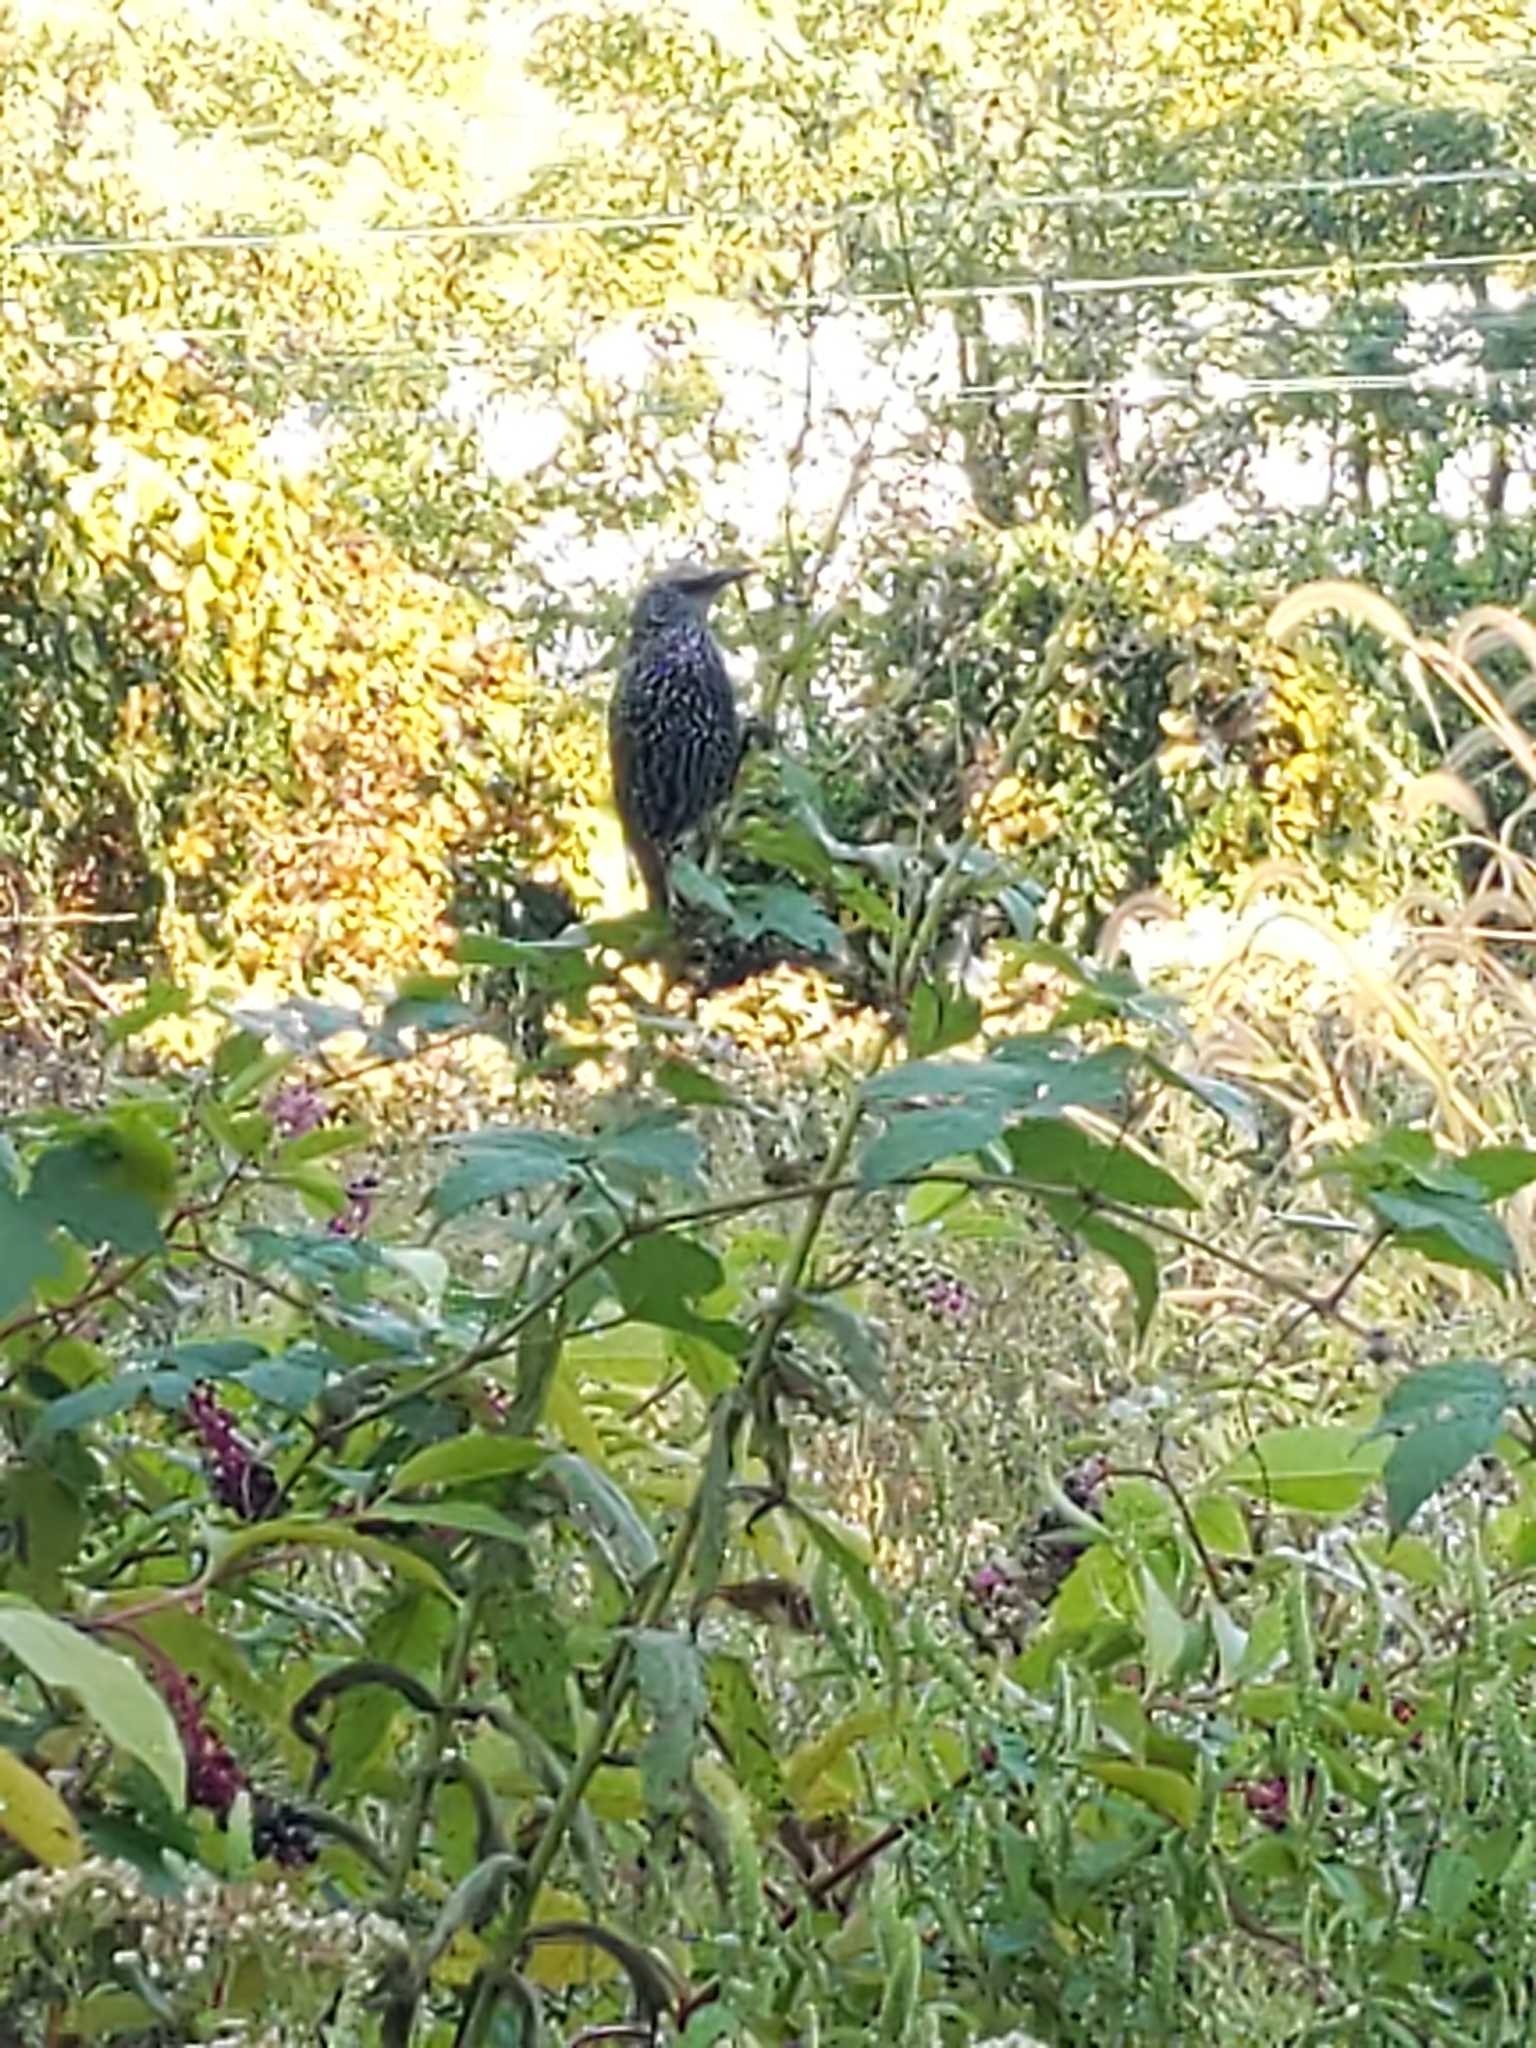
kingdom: Animalia
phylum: Chordata
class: Aves
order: Passeriformes
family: Sturnidae
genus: Sturnus
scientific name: Sturnus vulgaris
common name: Common starling
